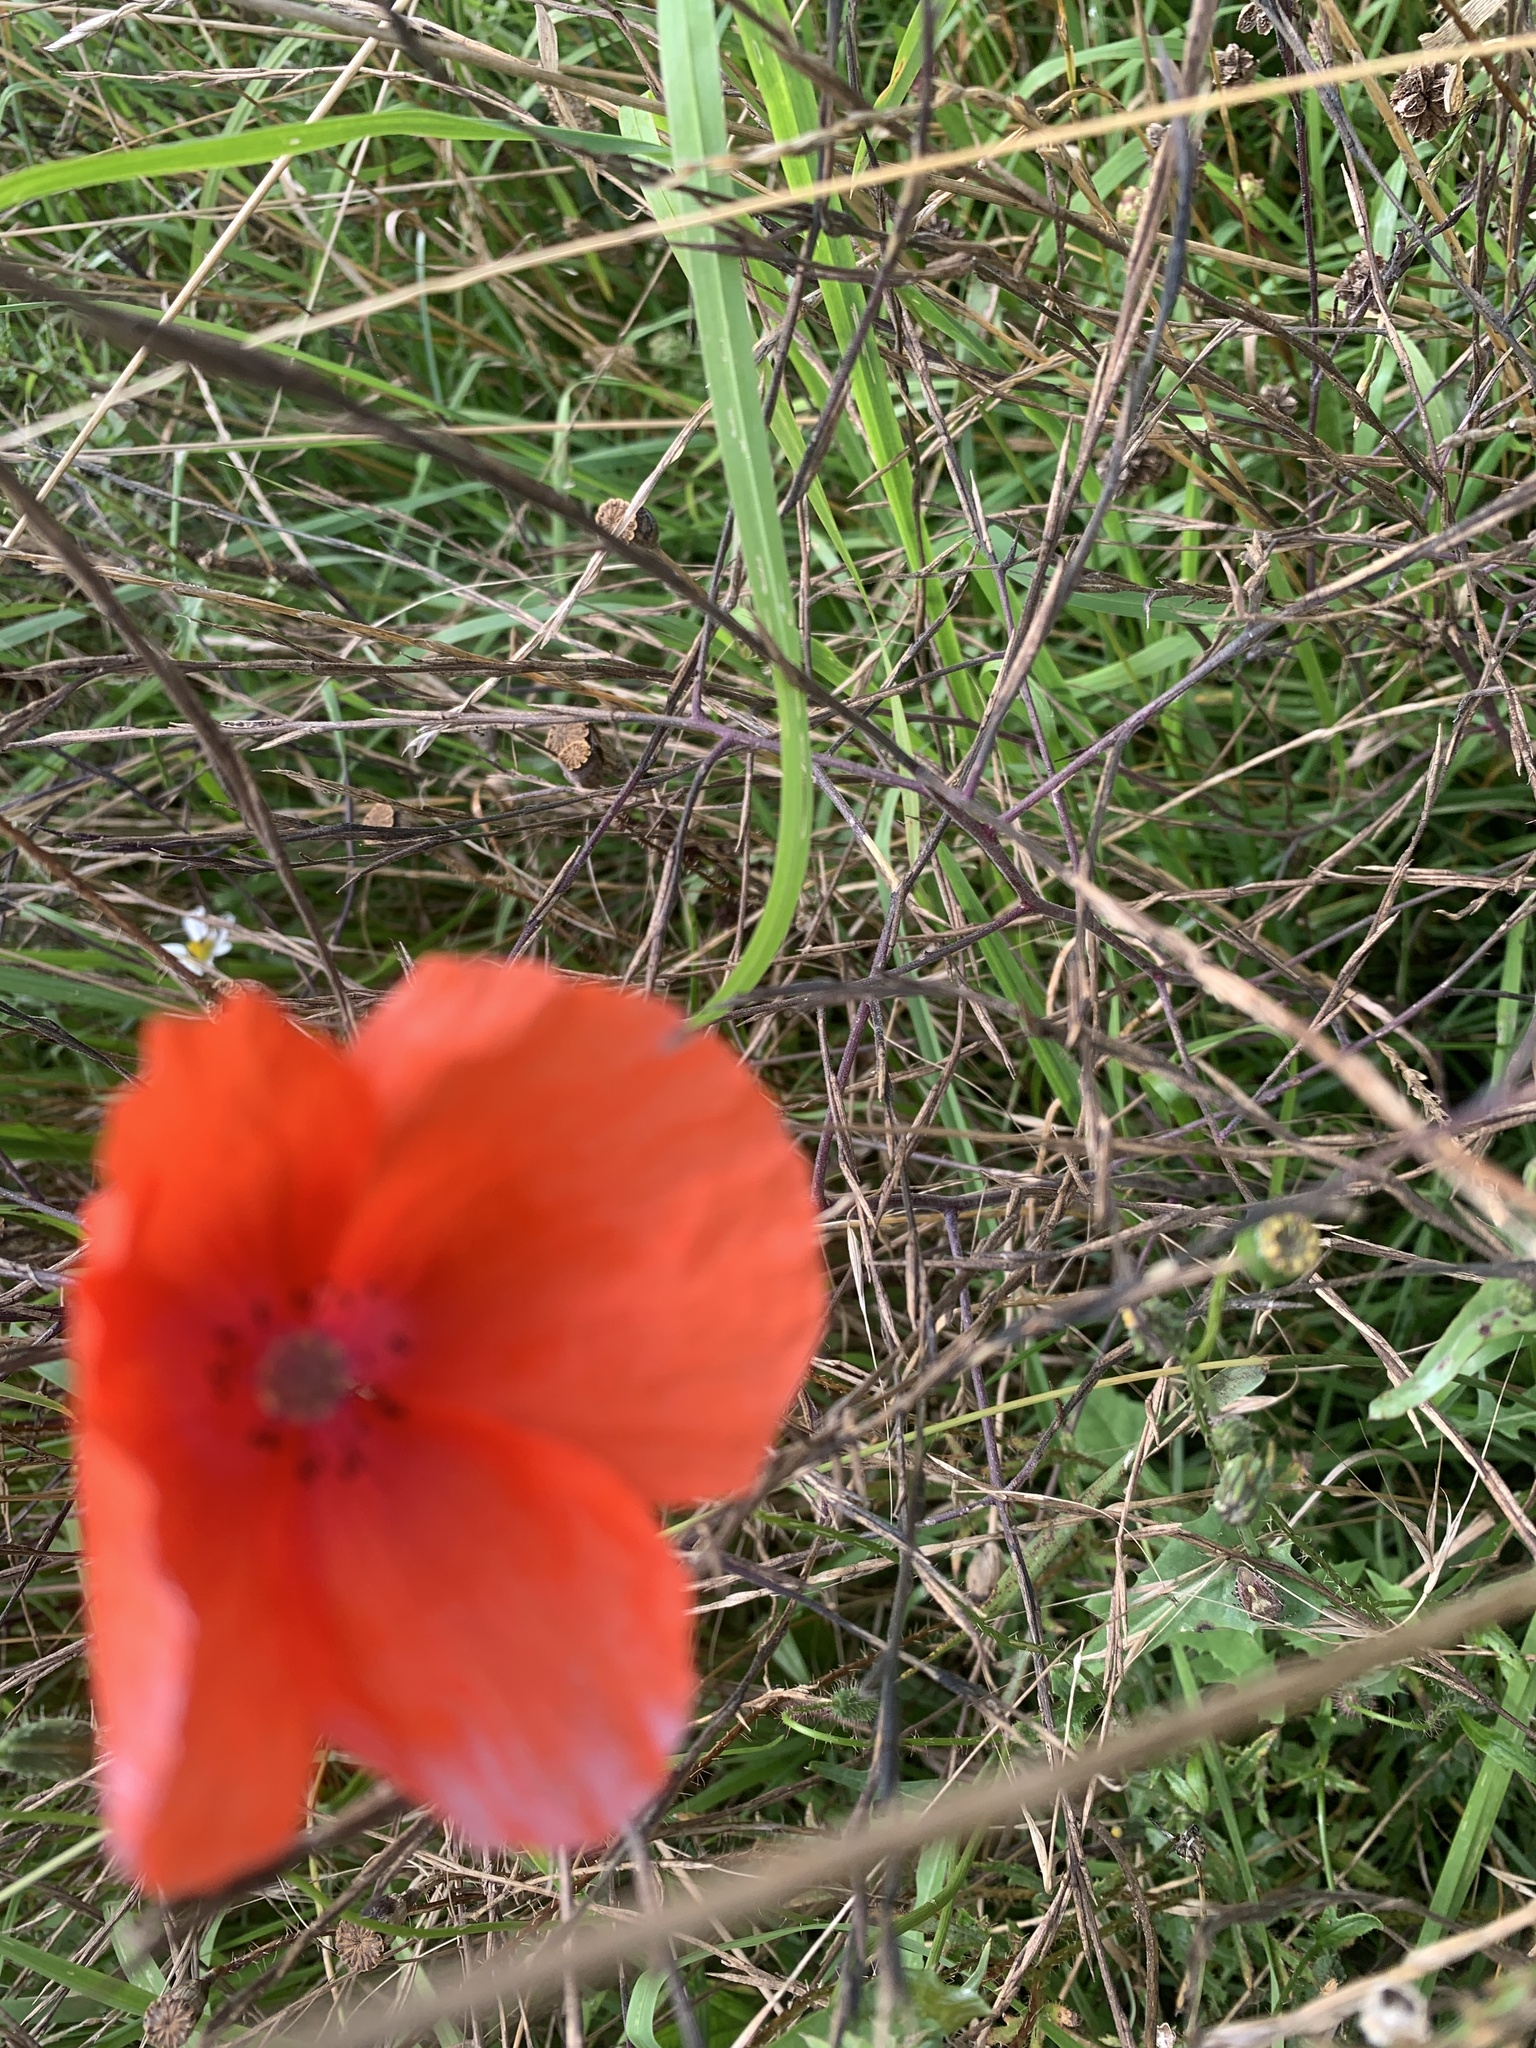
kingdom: Plantae
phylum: Tracheophyta
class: Magnoliopsida
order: Ranunculales
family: Papaveraceae
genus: Papaver
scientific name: Papaver rhoeas
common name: Corn poppy
